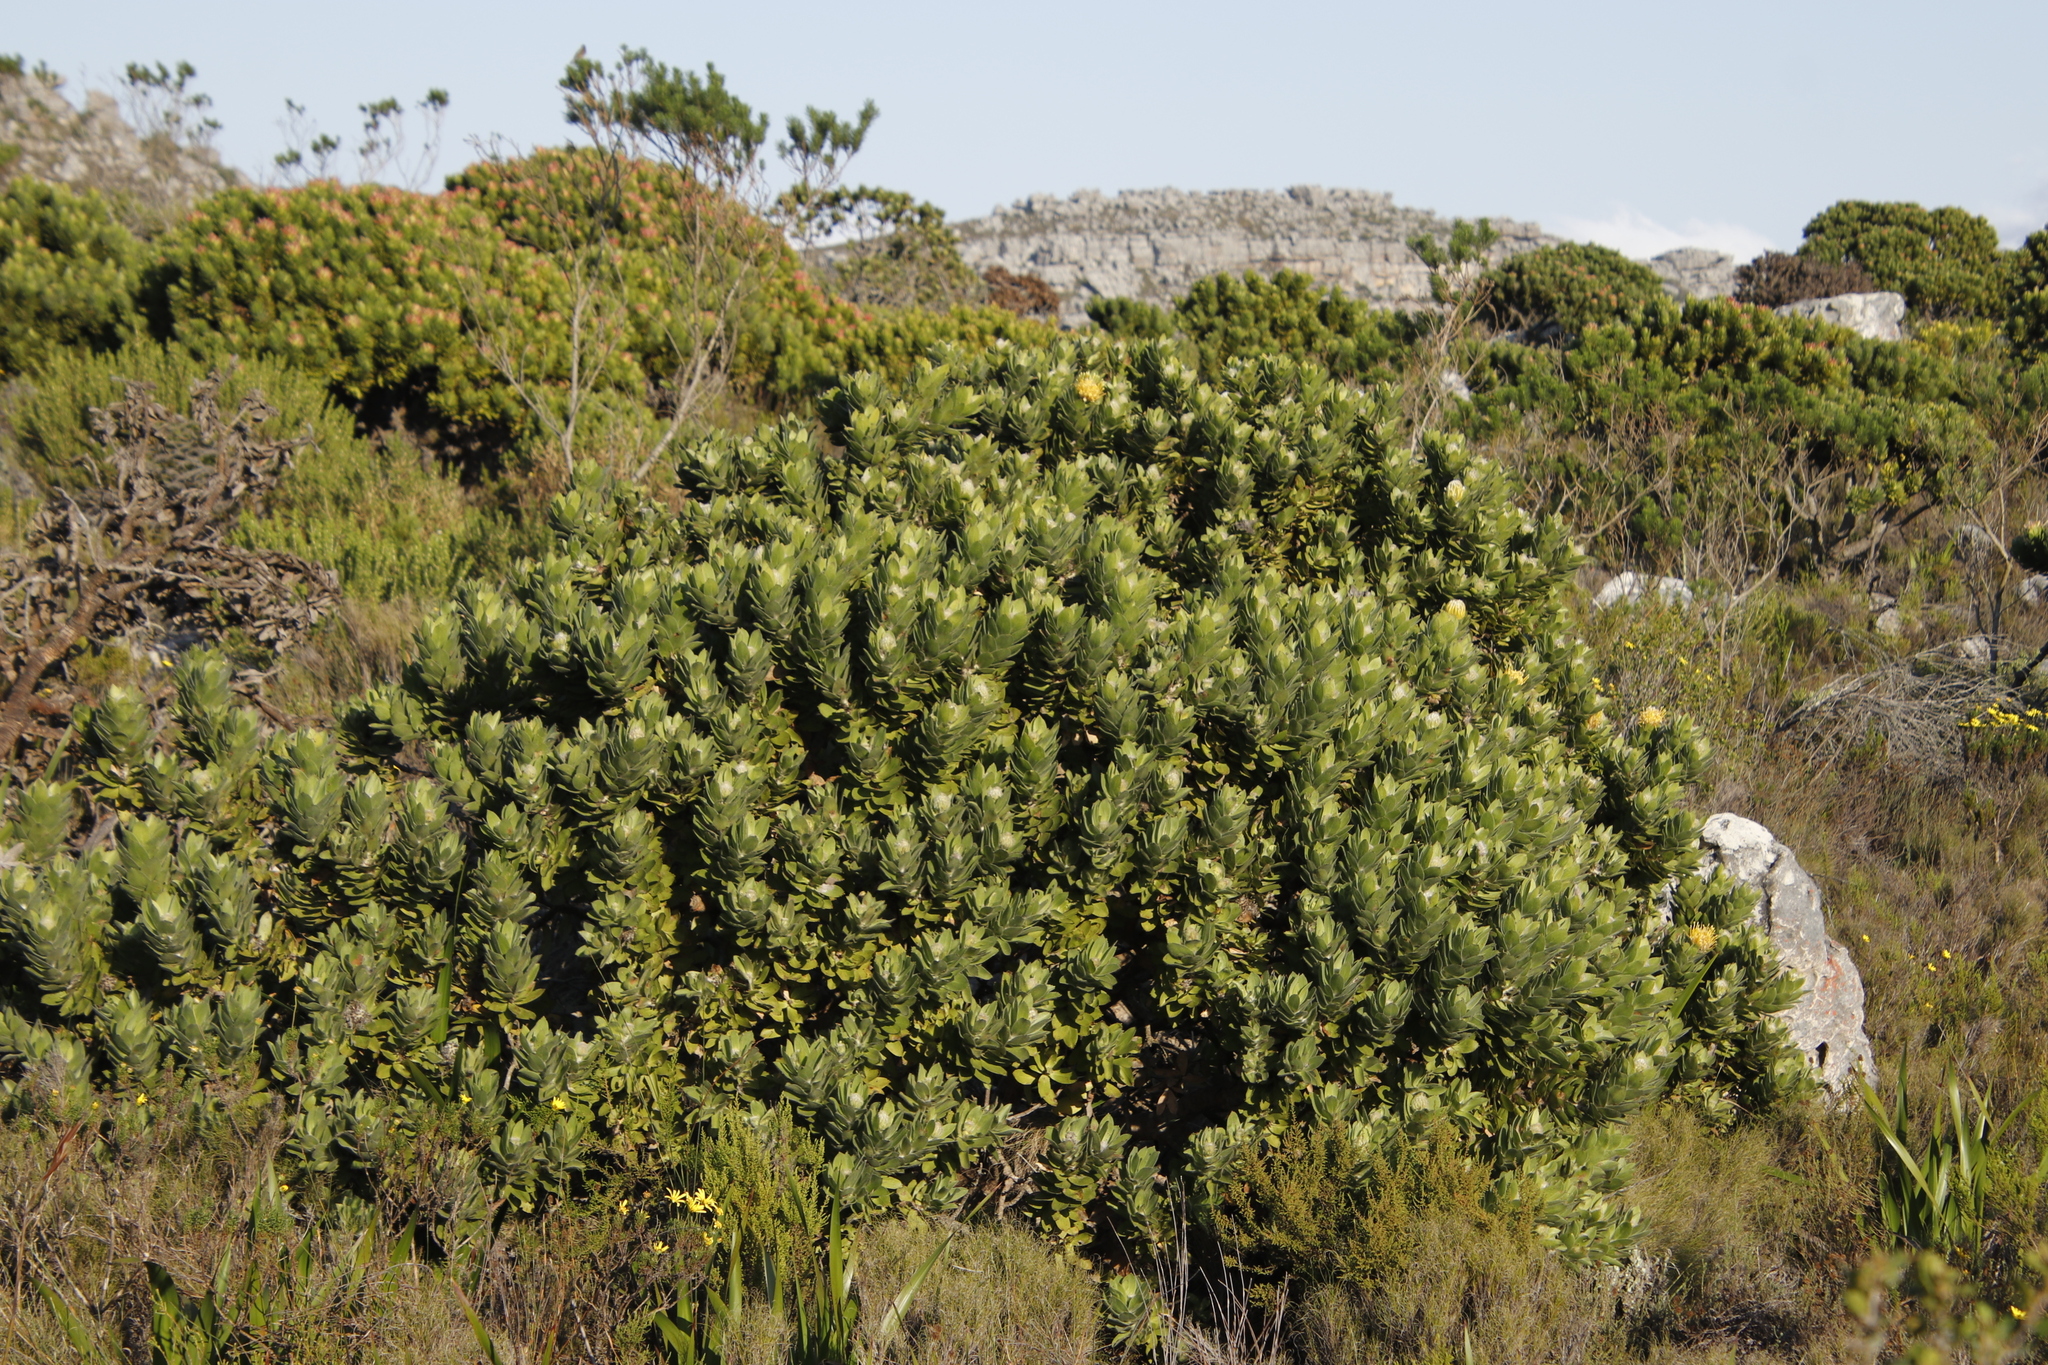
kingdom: Plantae
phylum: Tracheophyta
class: Magnoliopsida
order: Proteales
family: Proteaceae
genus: Leucospermum
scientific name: Leucospermum conocarpodendron
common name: Tree pincushion
